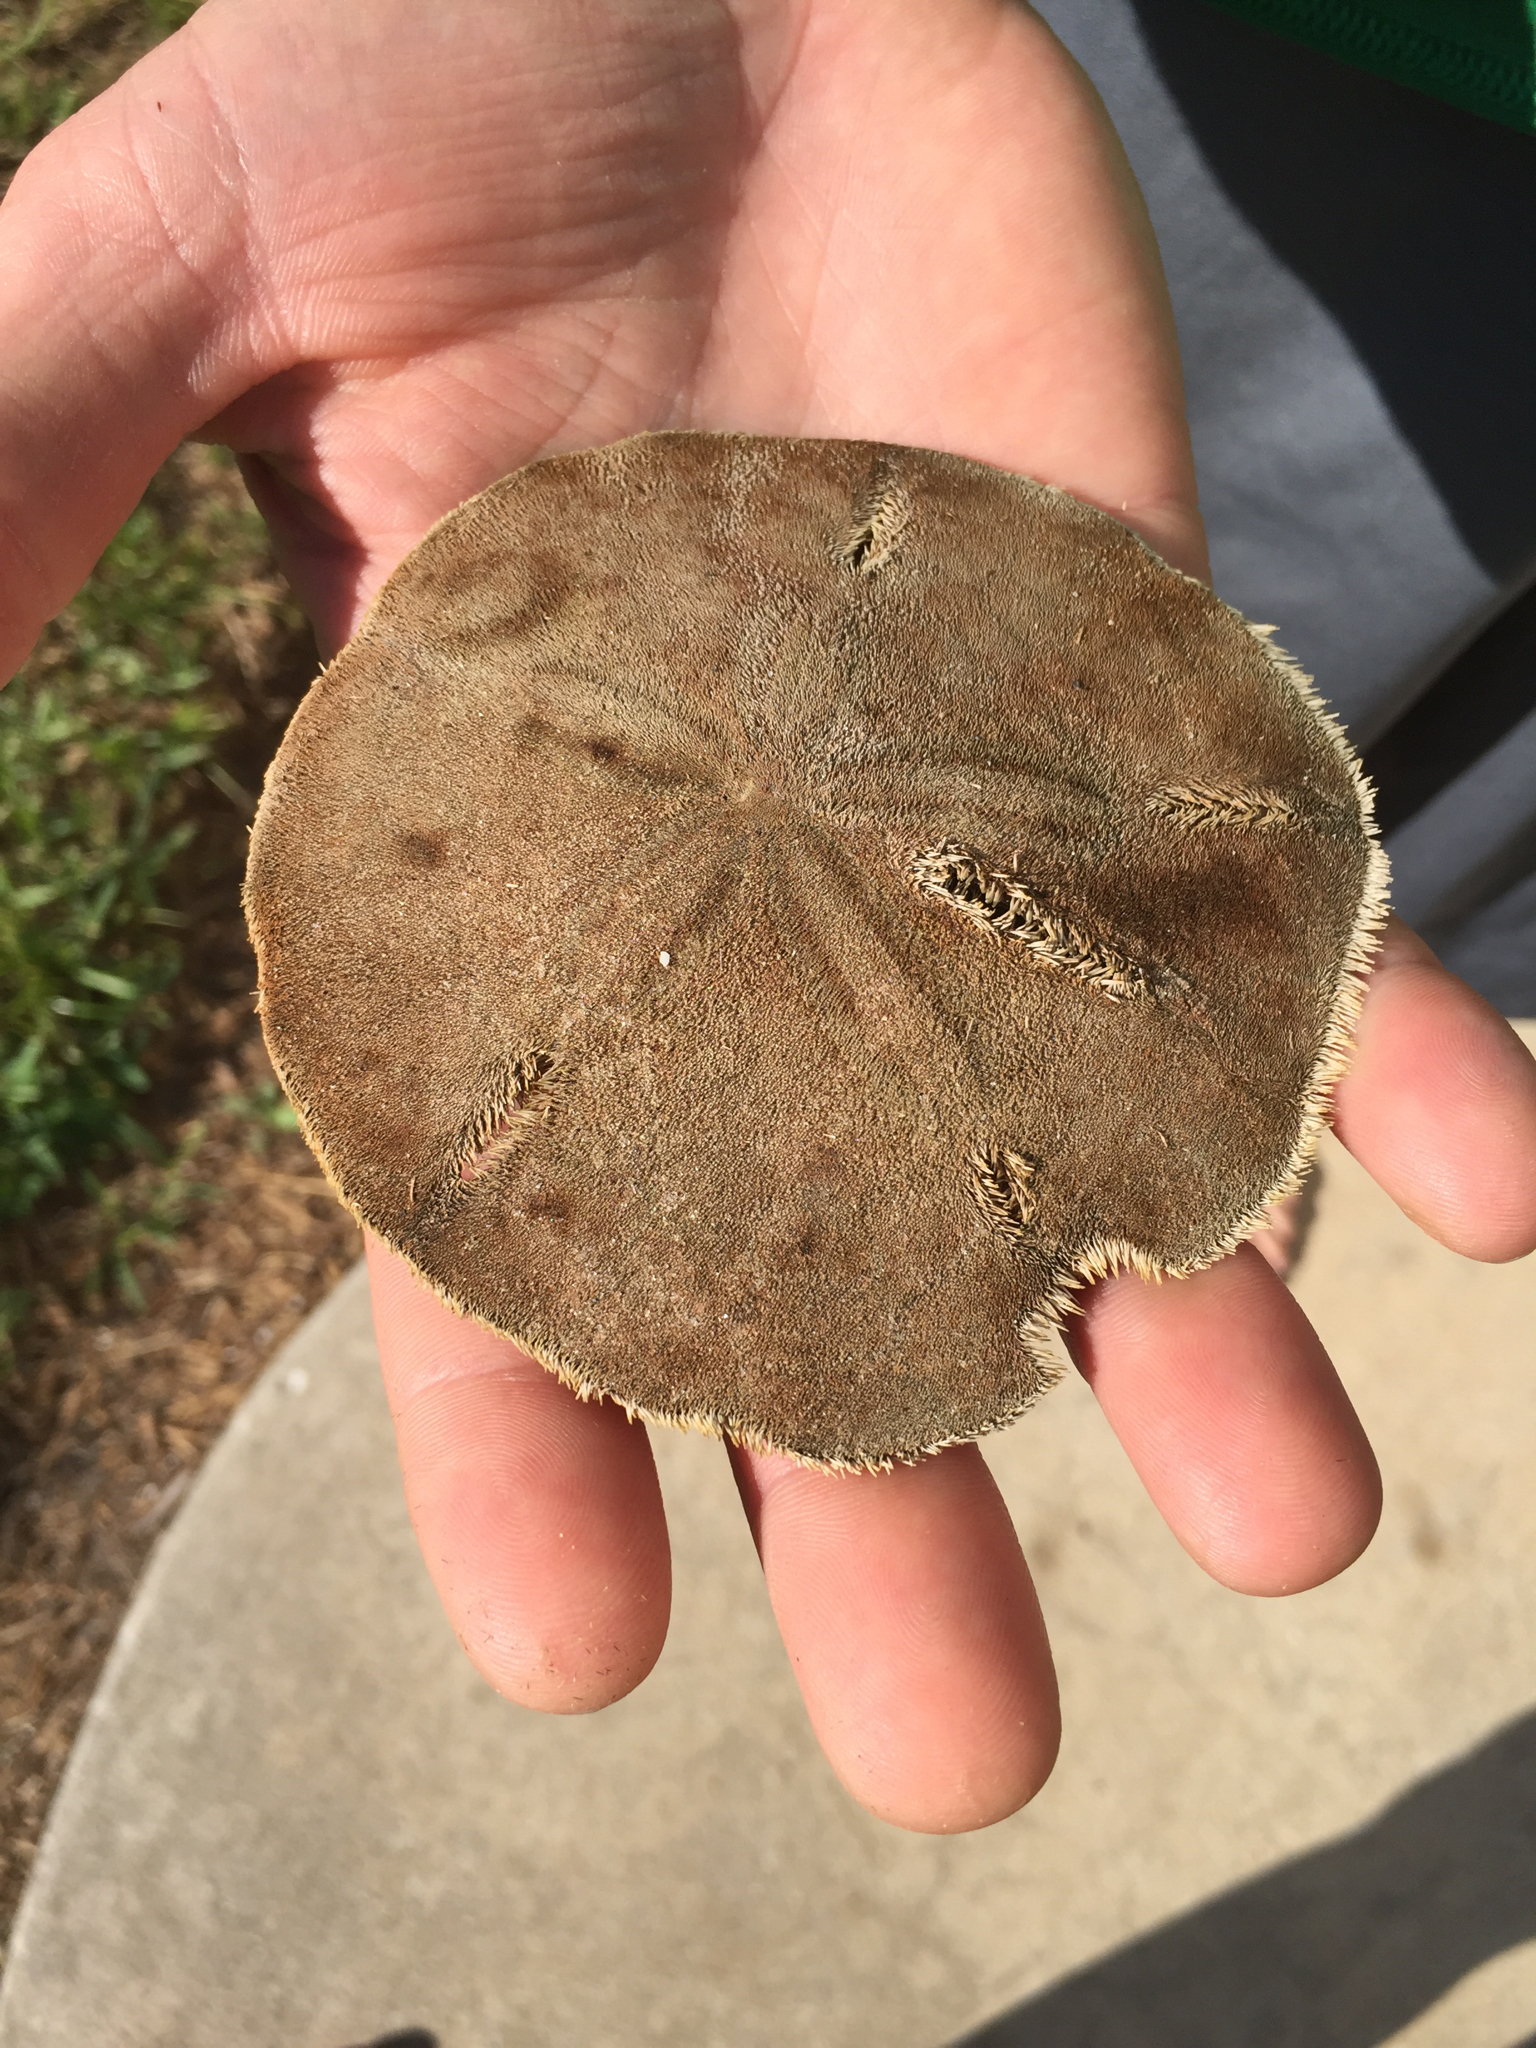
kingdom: Animalia
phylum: Echinodermata
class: Echinoidea
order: Echinolampadacea
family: Mellitidae
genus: Mellita
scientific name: Mellita quinquiesperforata
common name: Sand dollar
